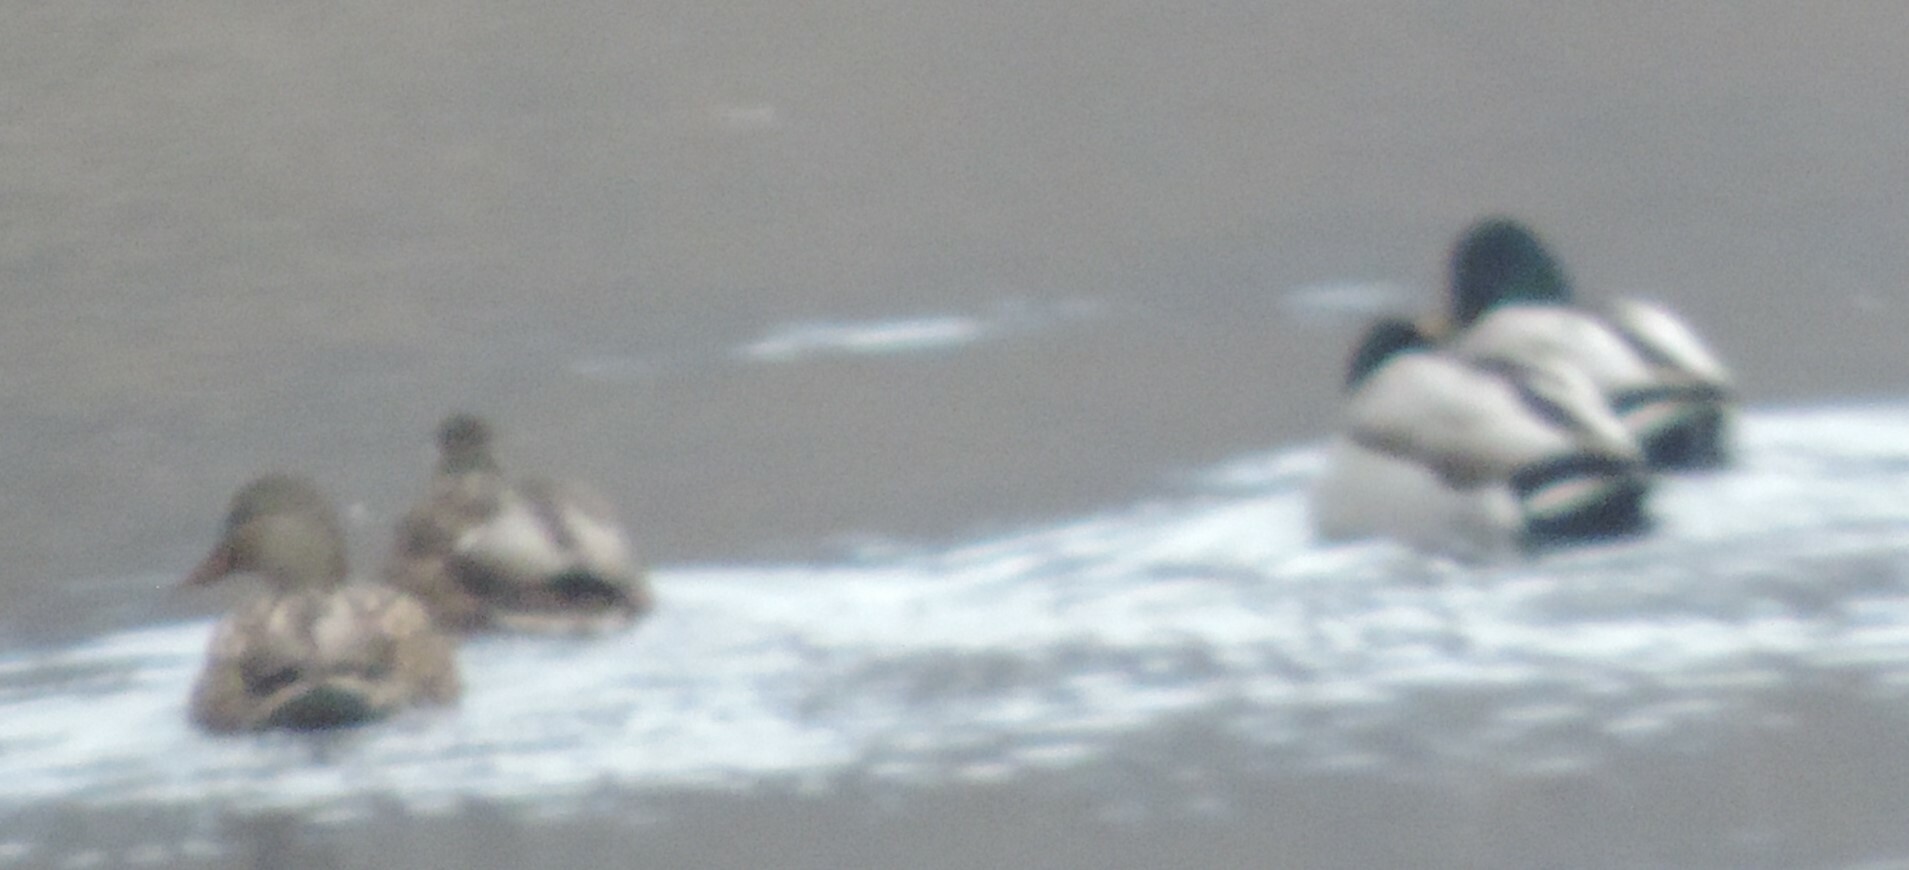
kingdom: Animalia
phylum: Chordata
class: Aves
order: Anseriformes
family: Anatidae
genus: Anas
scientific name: Anas platyrhynchos
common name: Mallard
